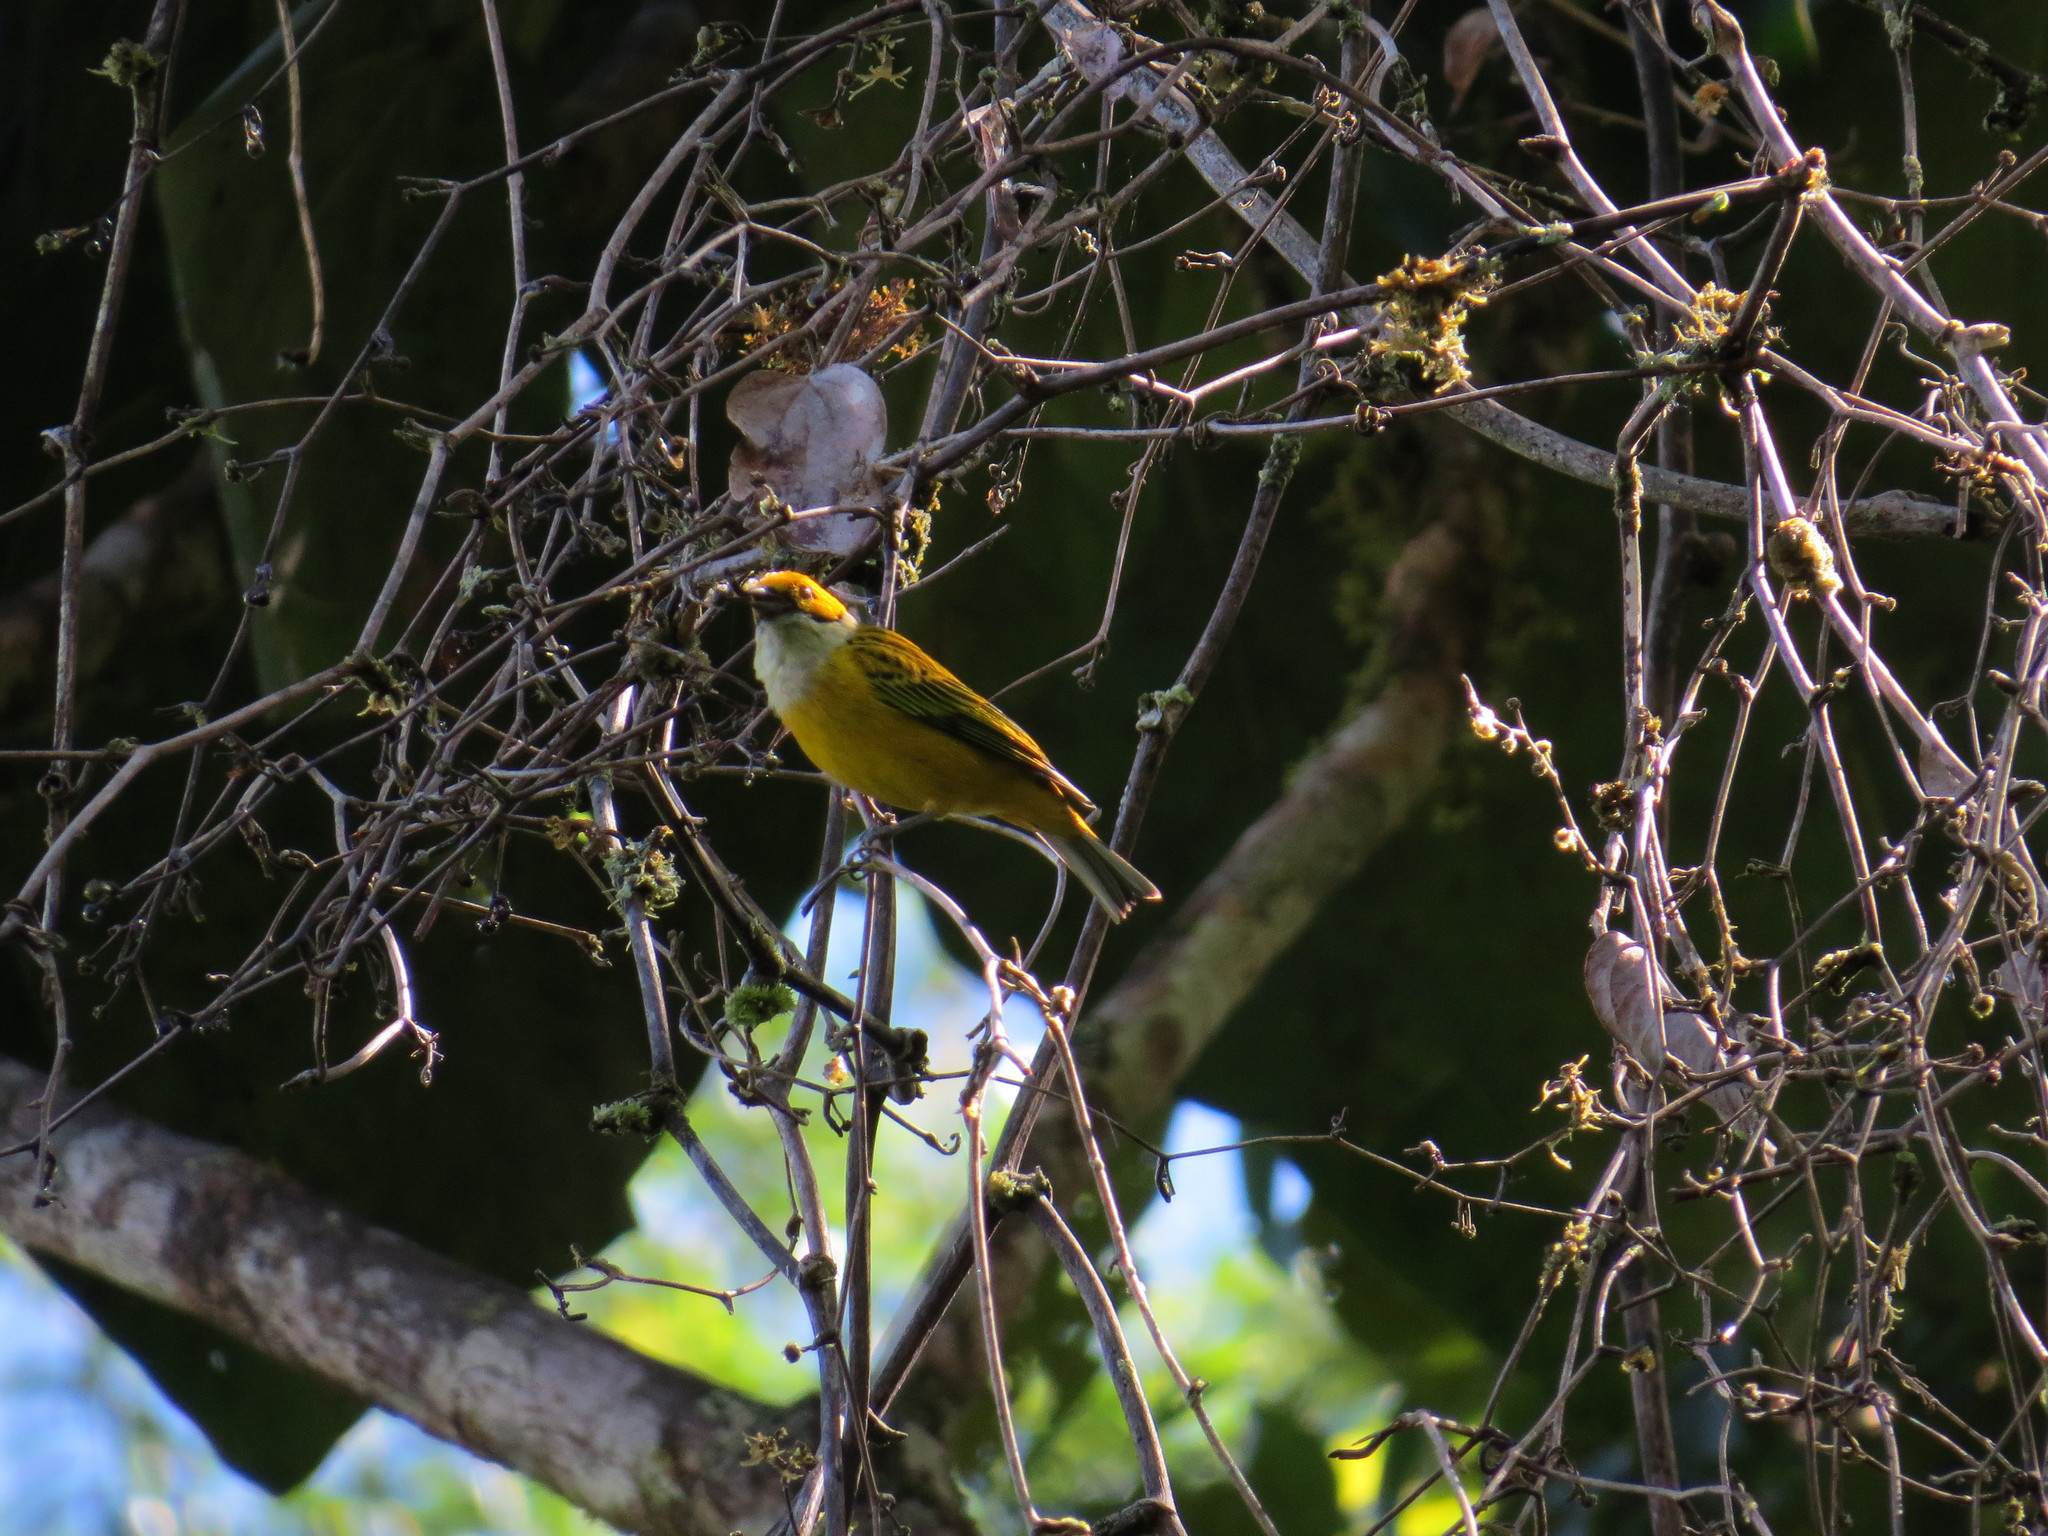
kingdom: Animalia
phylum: Chordata
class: Aves
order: Passeriformes
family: Thraupidae
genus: Tangara
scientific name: Tangara icterocephala
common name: Silver-throated tanager
